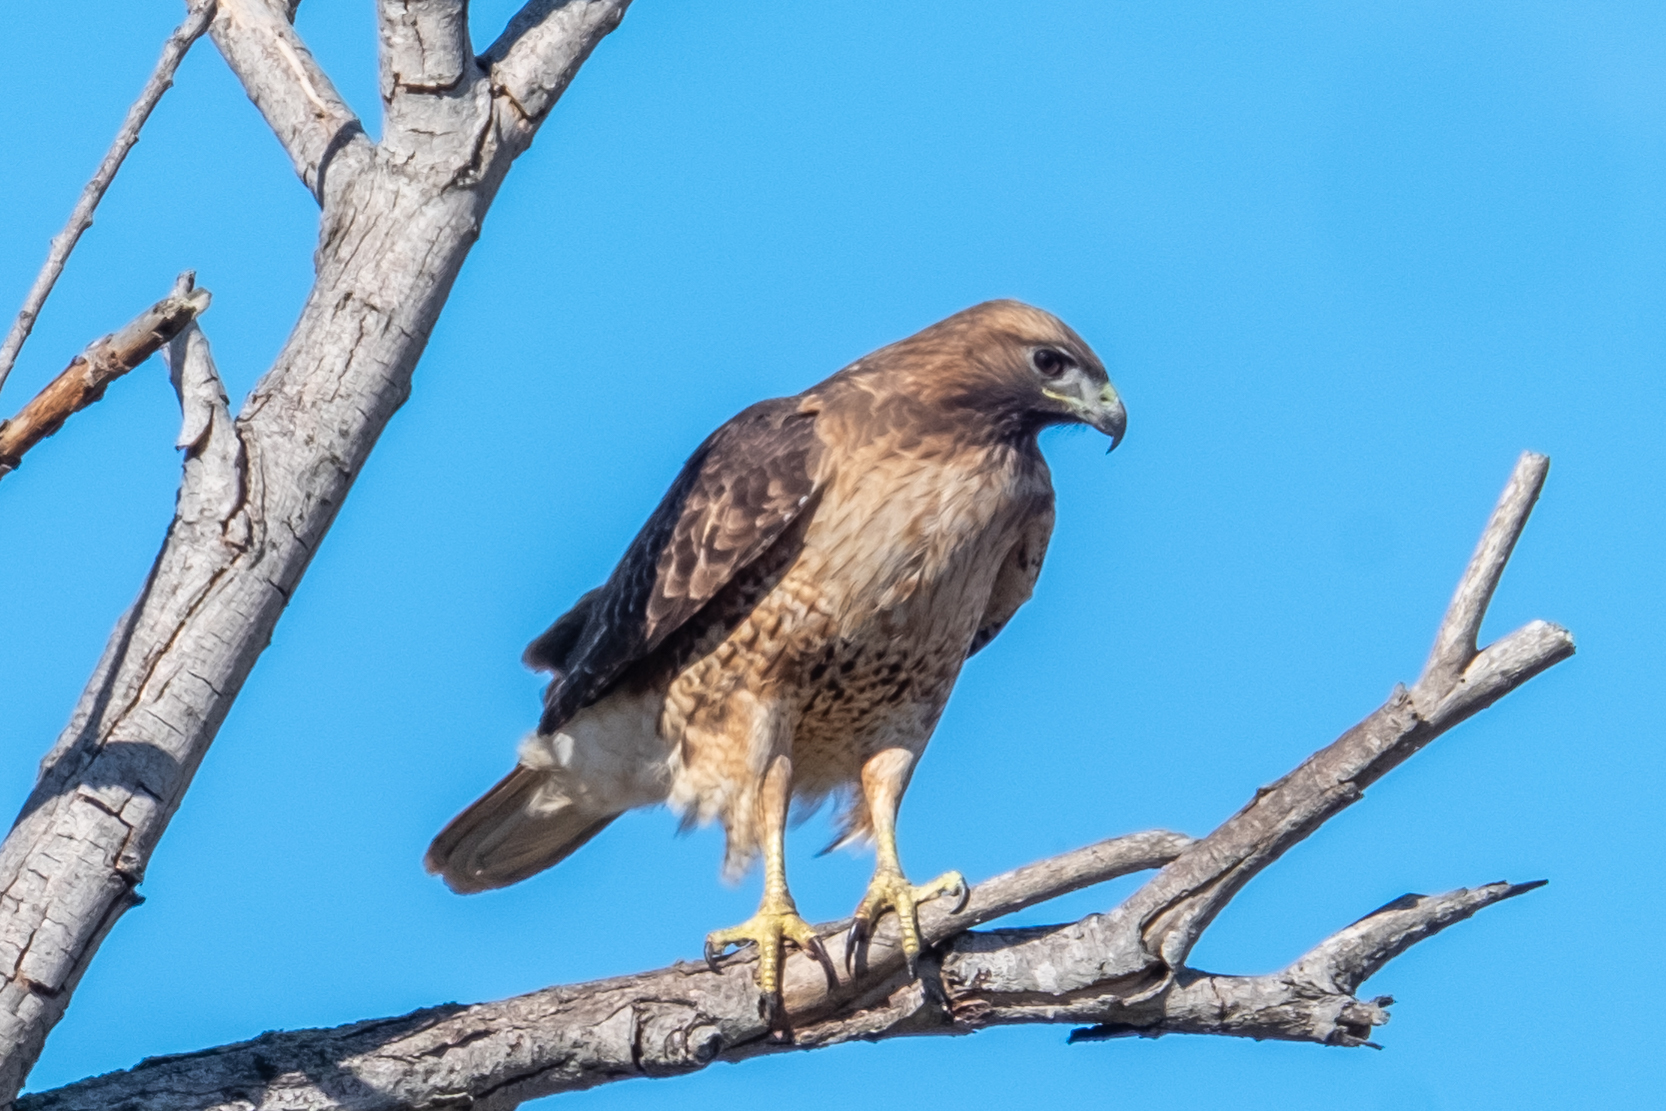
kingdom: Animalia
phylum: Chordata
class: Aves
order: Accipitriformes
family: Accipitridae
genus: Buteo
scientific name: Buteo jamaicensis
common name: Red-tailed hawk
